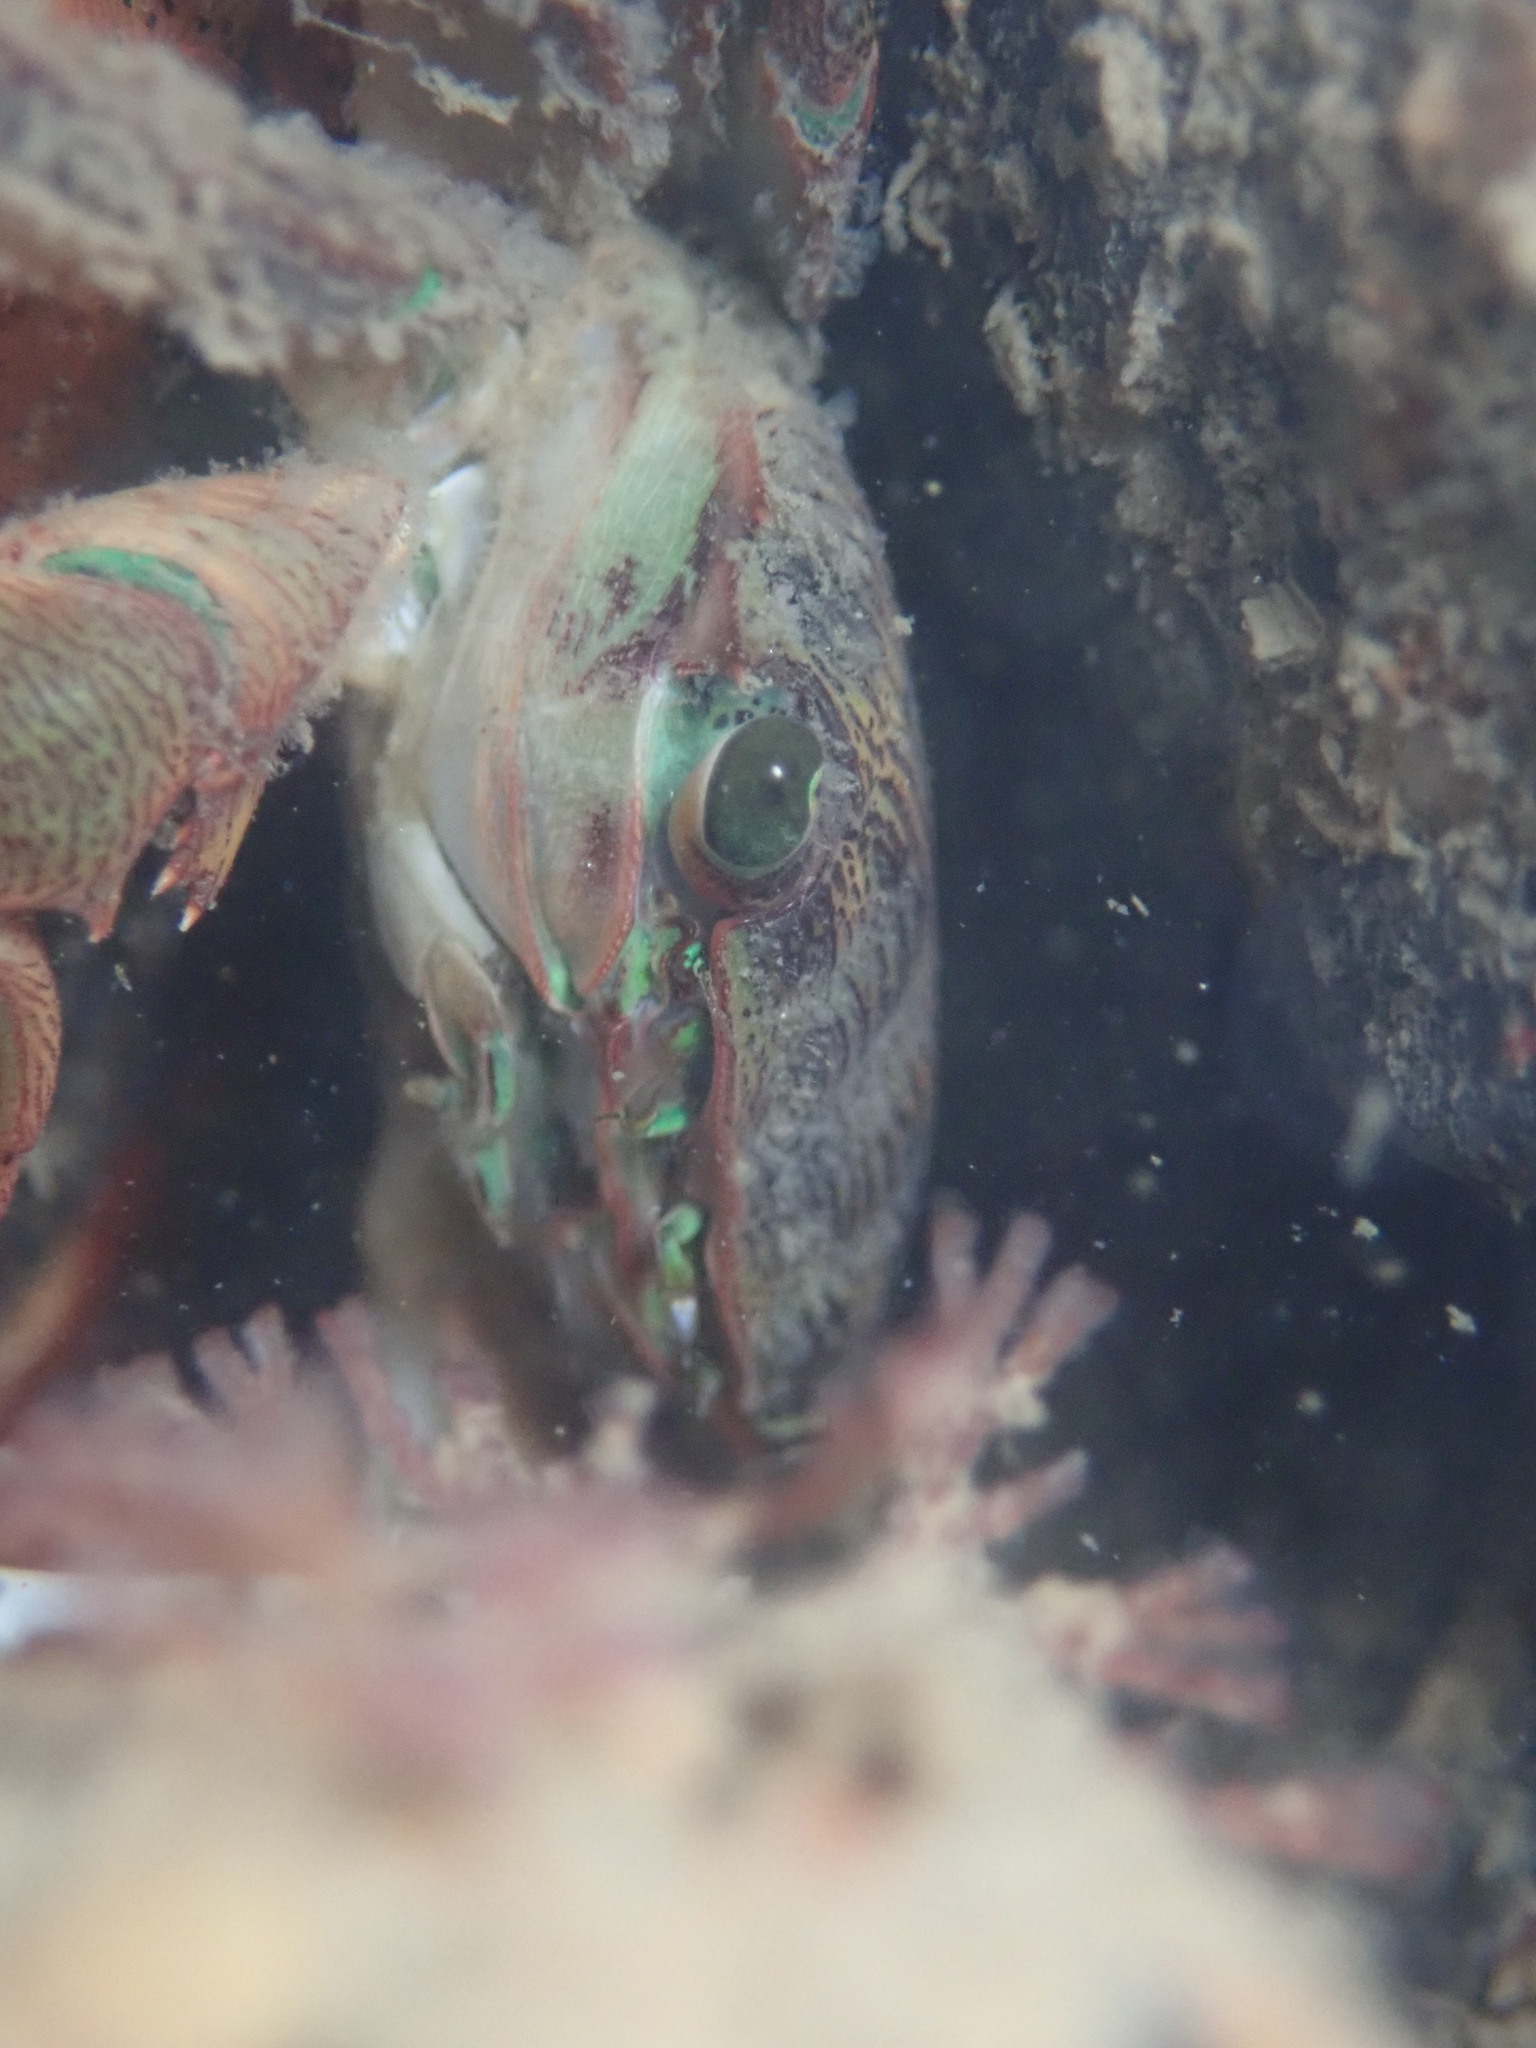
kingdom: Animalia
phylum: Arthropoda
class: Malacostraca
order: Decapoda
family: Grapsidae
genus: Pachygrapsus
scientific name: Pachygrapsus crassipes
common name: Striped shore crab
